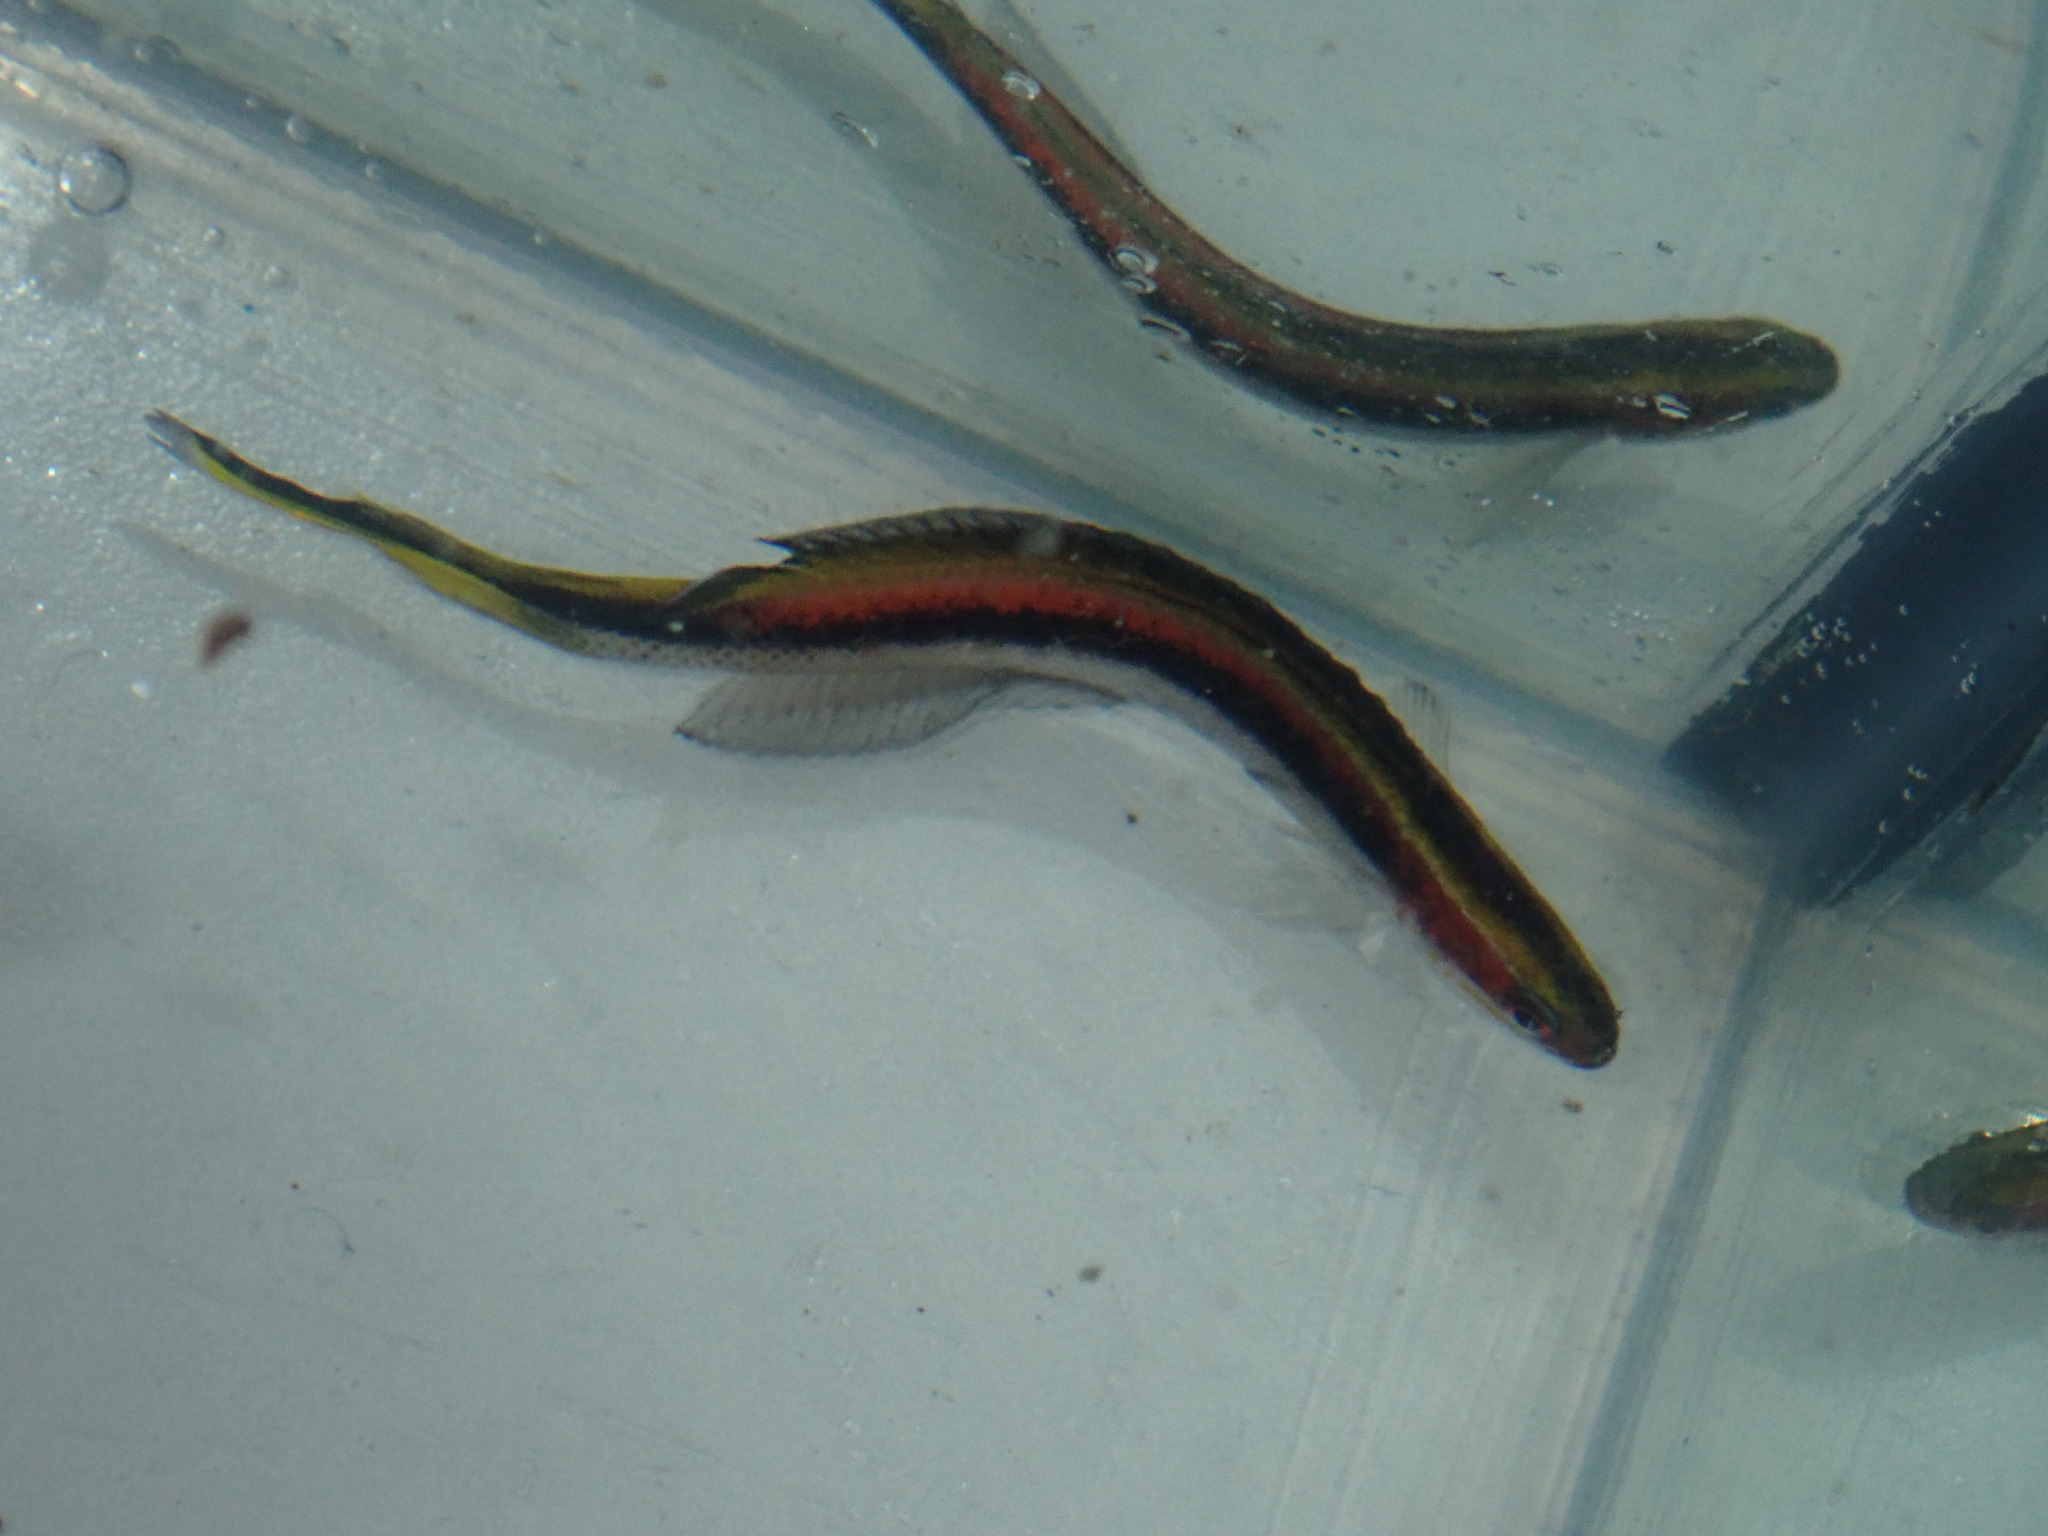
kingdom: Animalia
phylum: Chordata
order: Perciformes
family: Plesiopidae
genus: Trachinops
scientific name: Trachinops taeniatus
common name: Eastern hulafish
